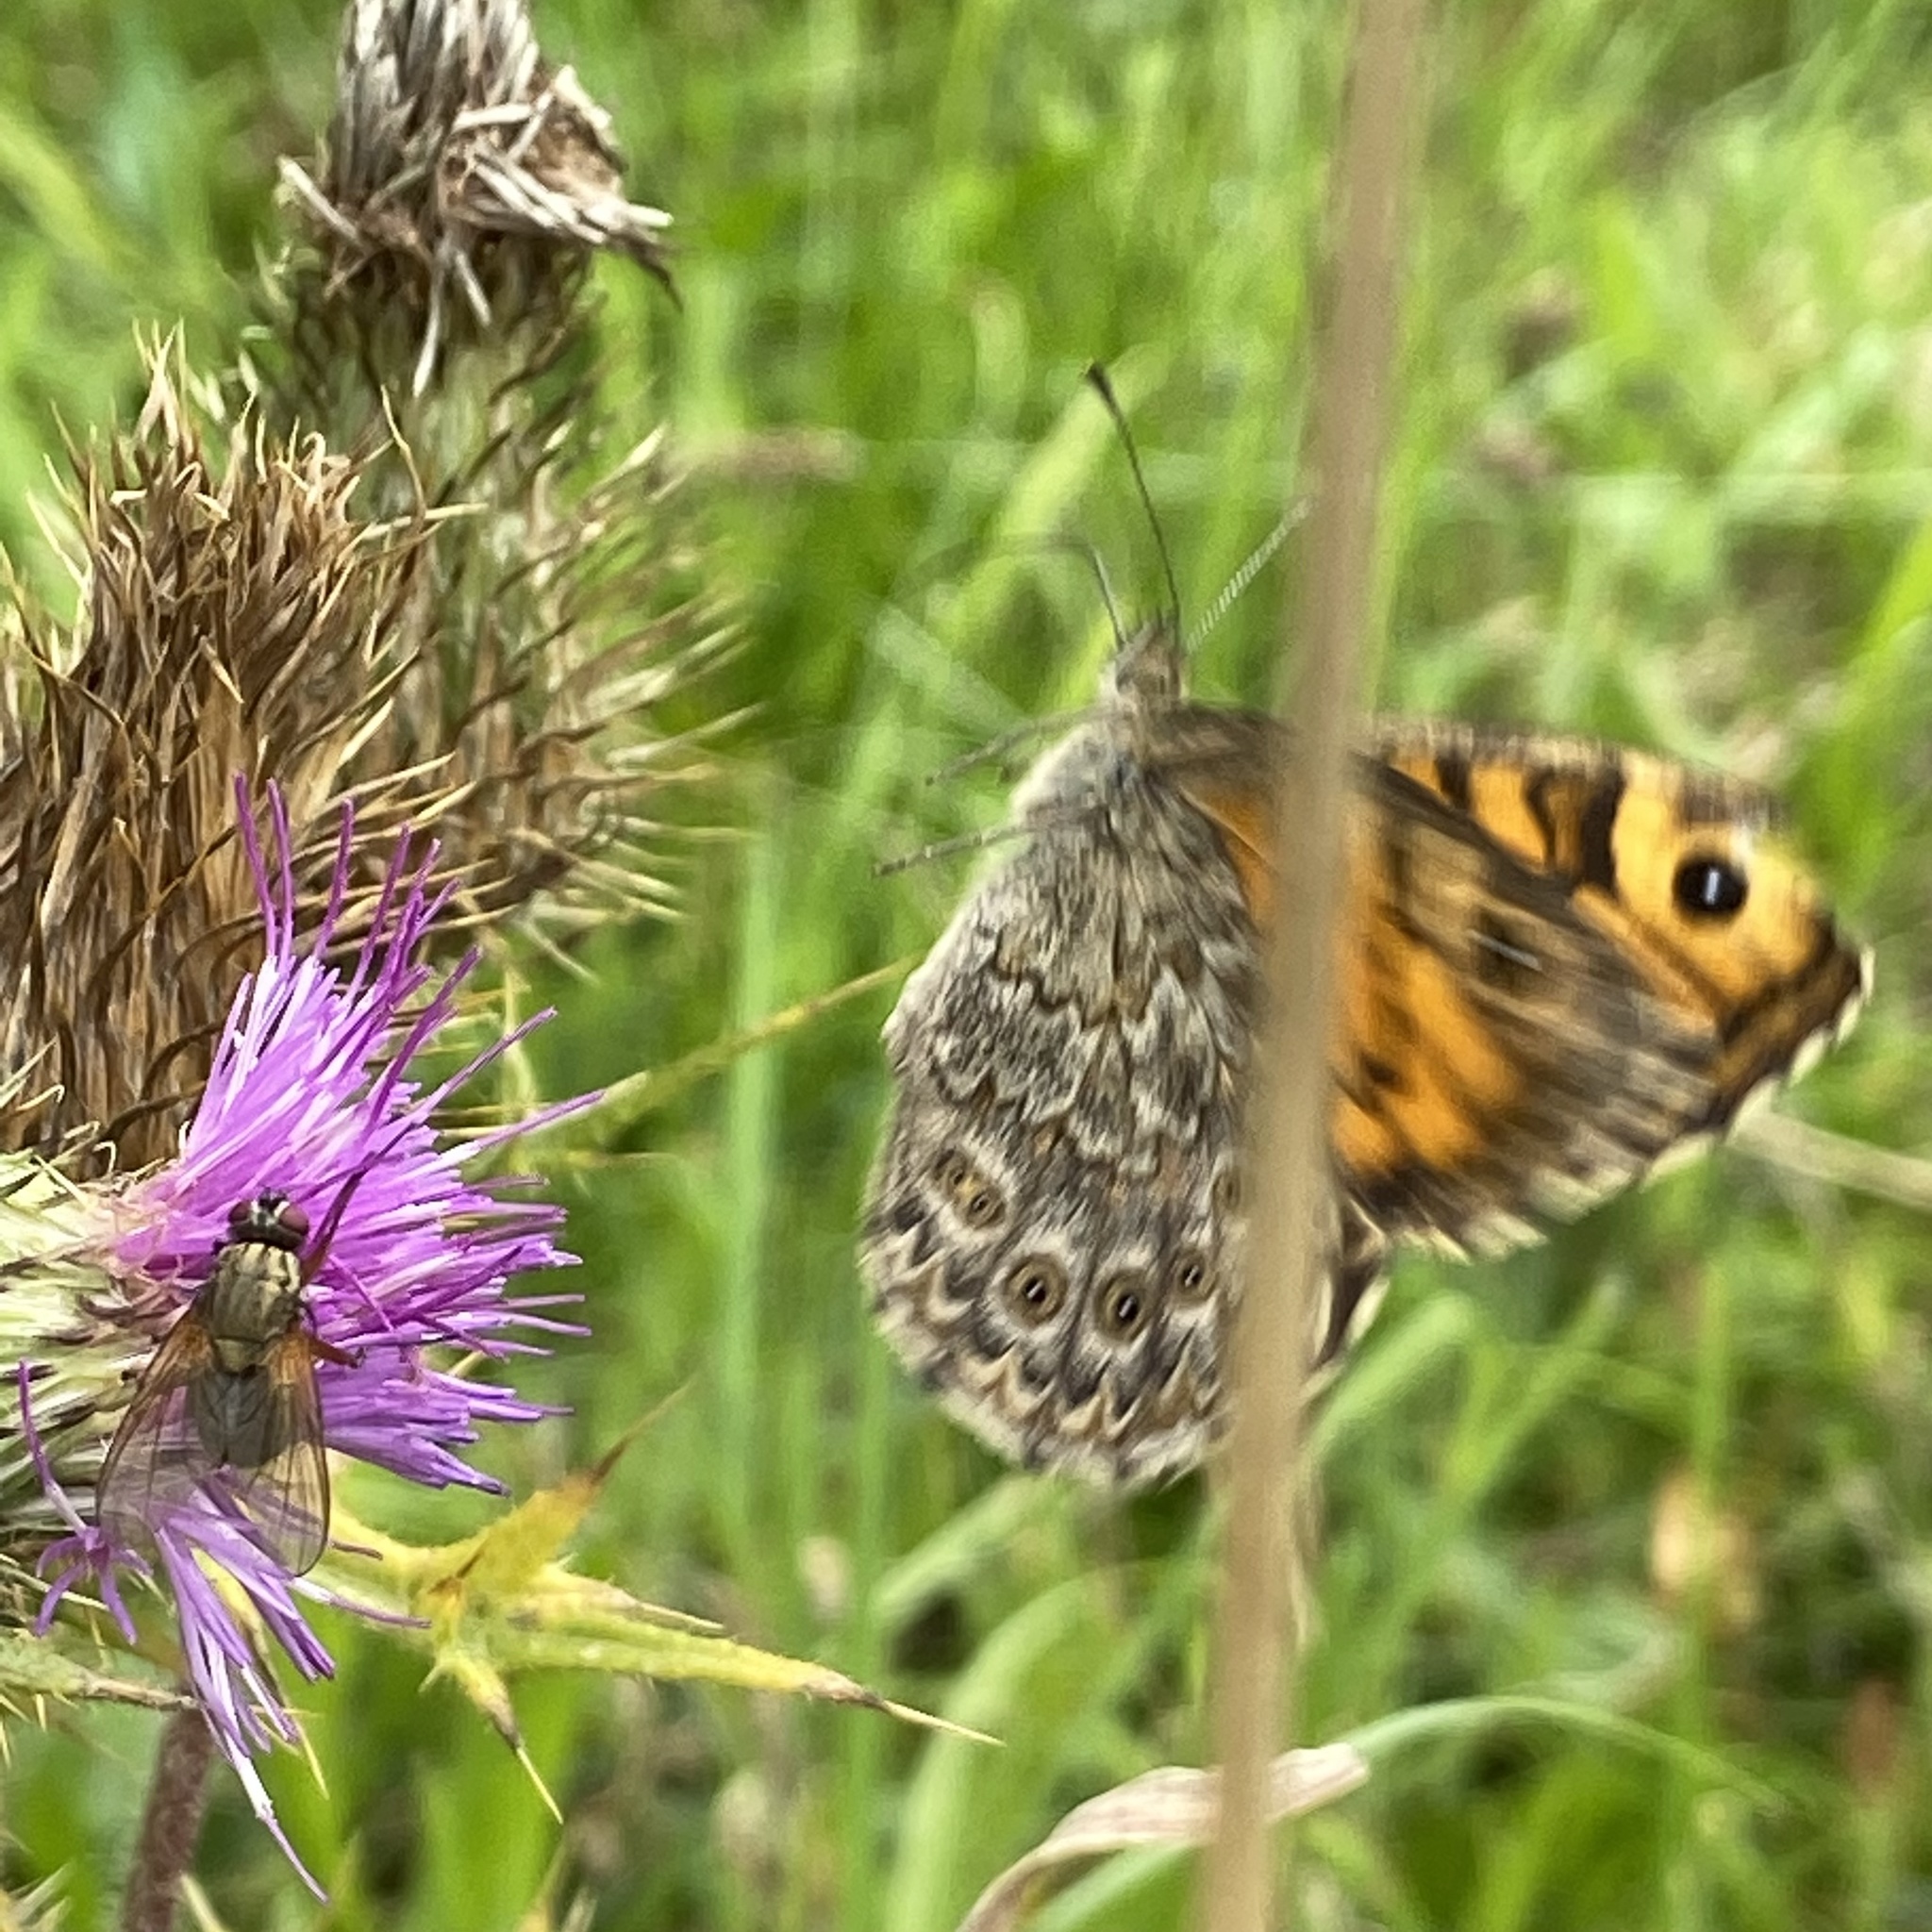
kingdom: Animalia
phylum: Arthropoda
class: Insecta
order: Lepidoptera
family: Nymphalidae
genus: Pararge
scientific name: Pararge Lasiommata megera
